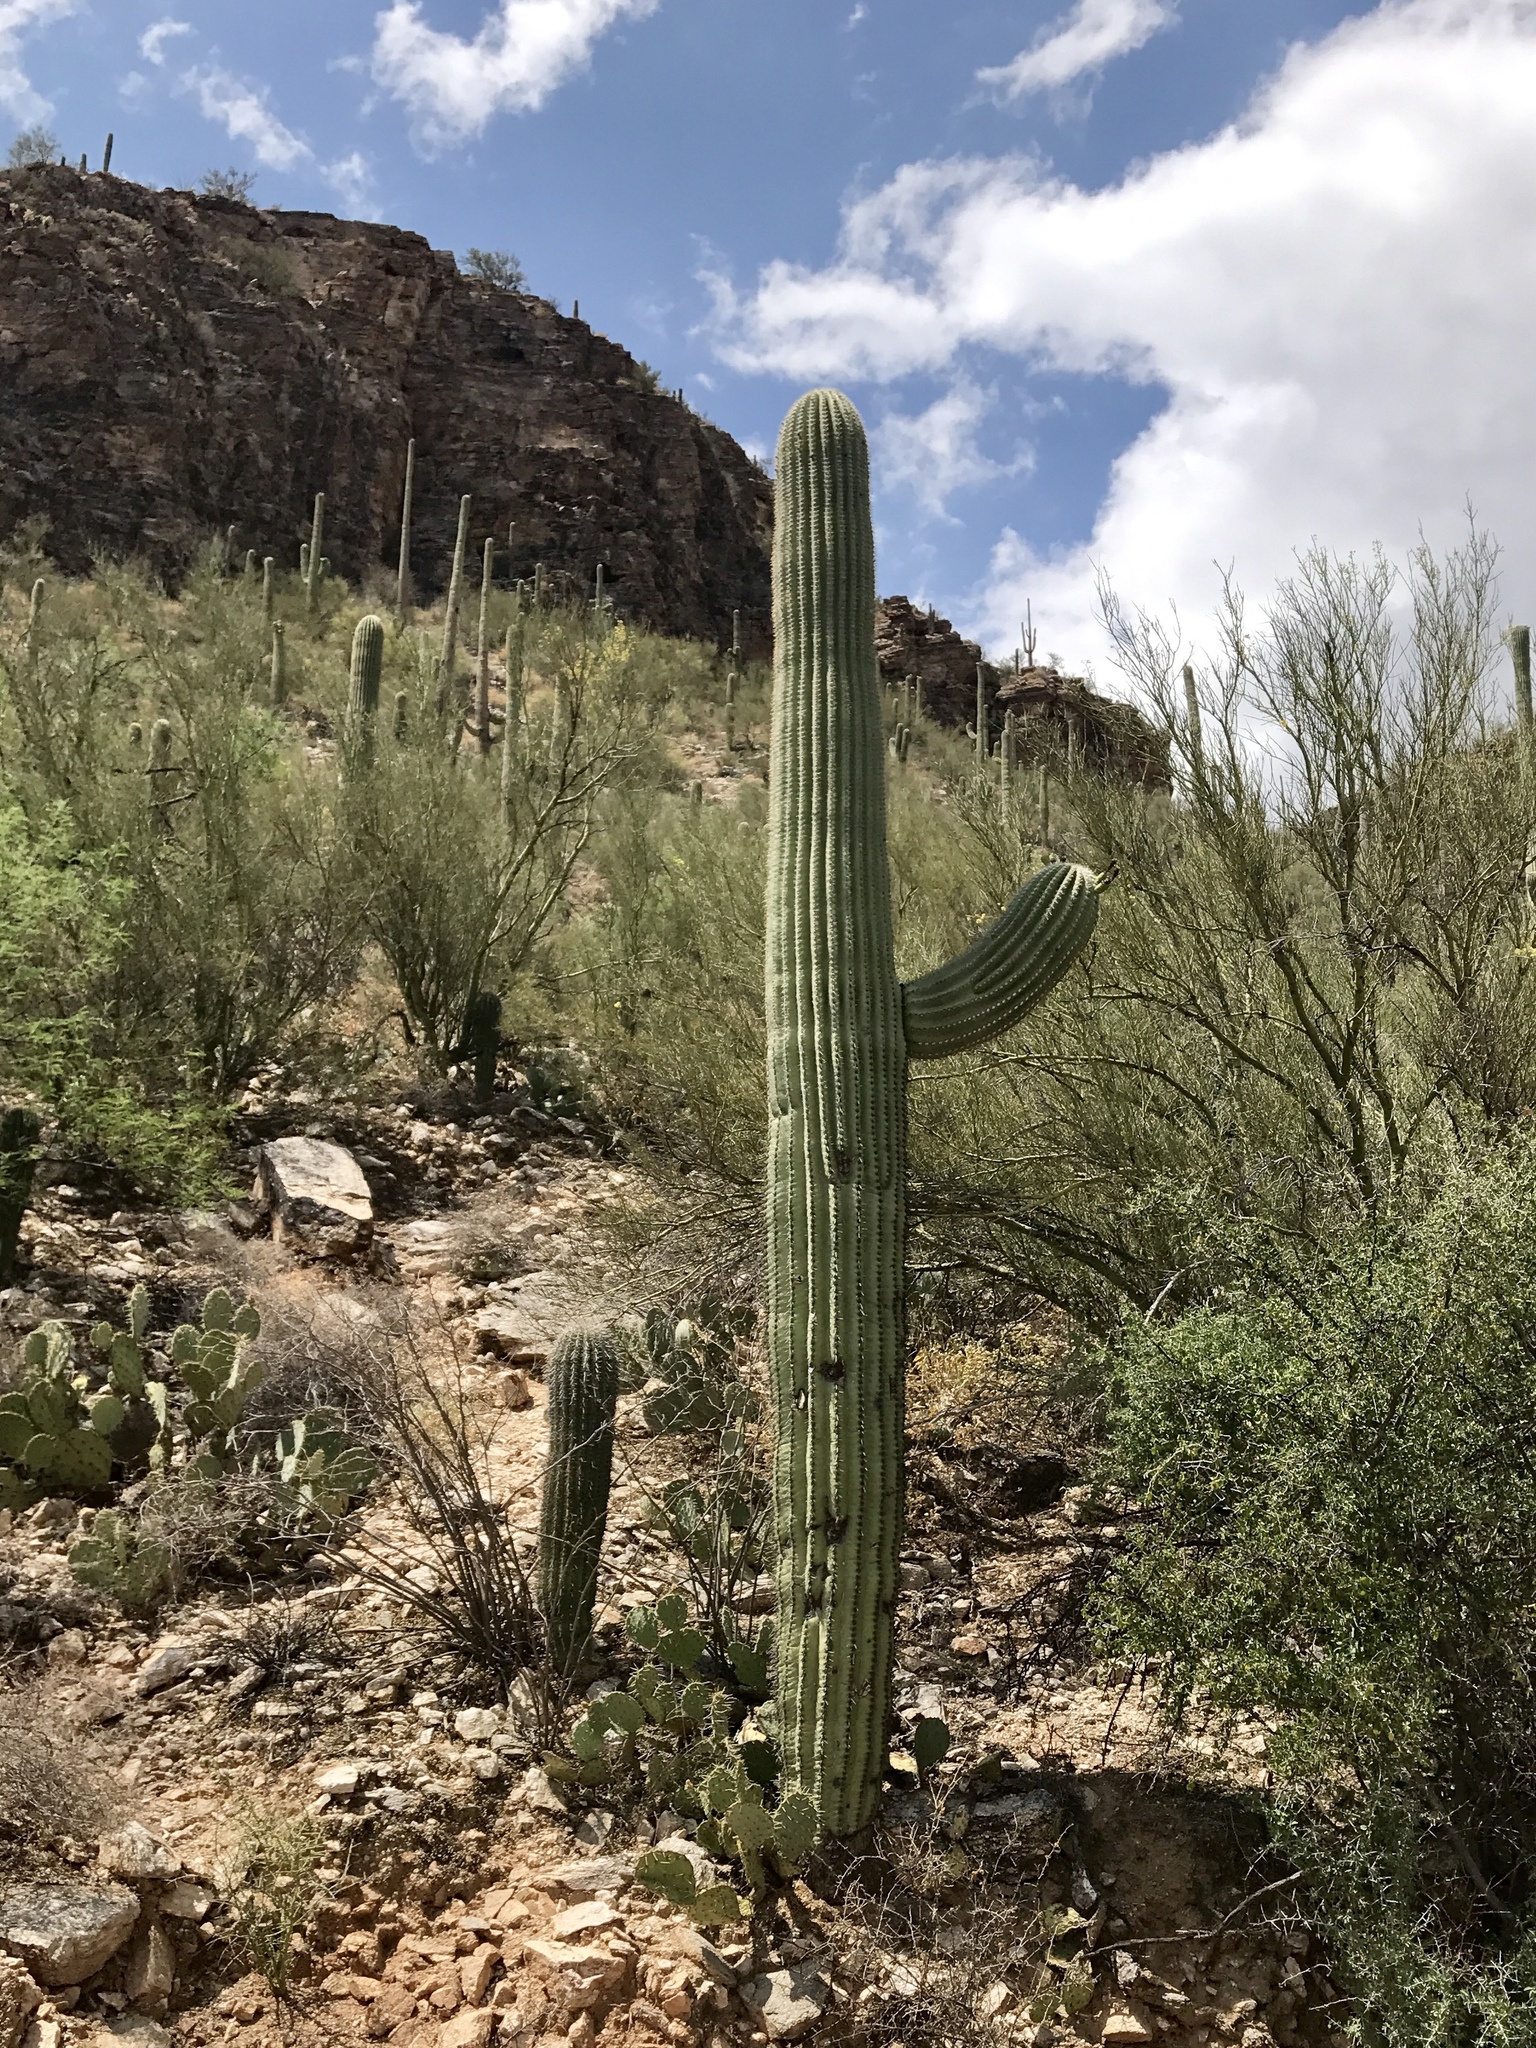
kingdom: Plantae
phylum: Tracheophyta
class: Magnoliopsida
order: Caryophyllales
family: Cactaceae
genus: Carnegiea
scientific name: Carnegiea gigantea
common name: Saguaro
